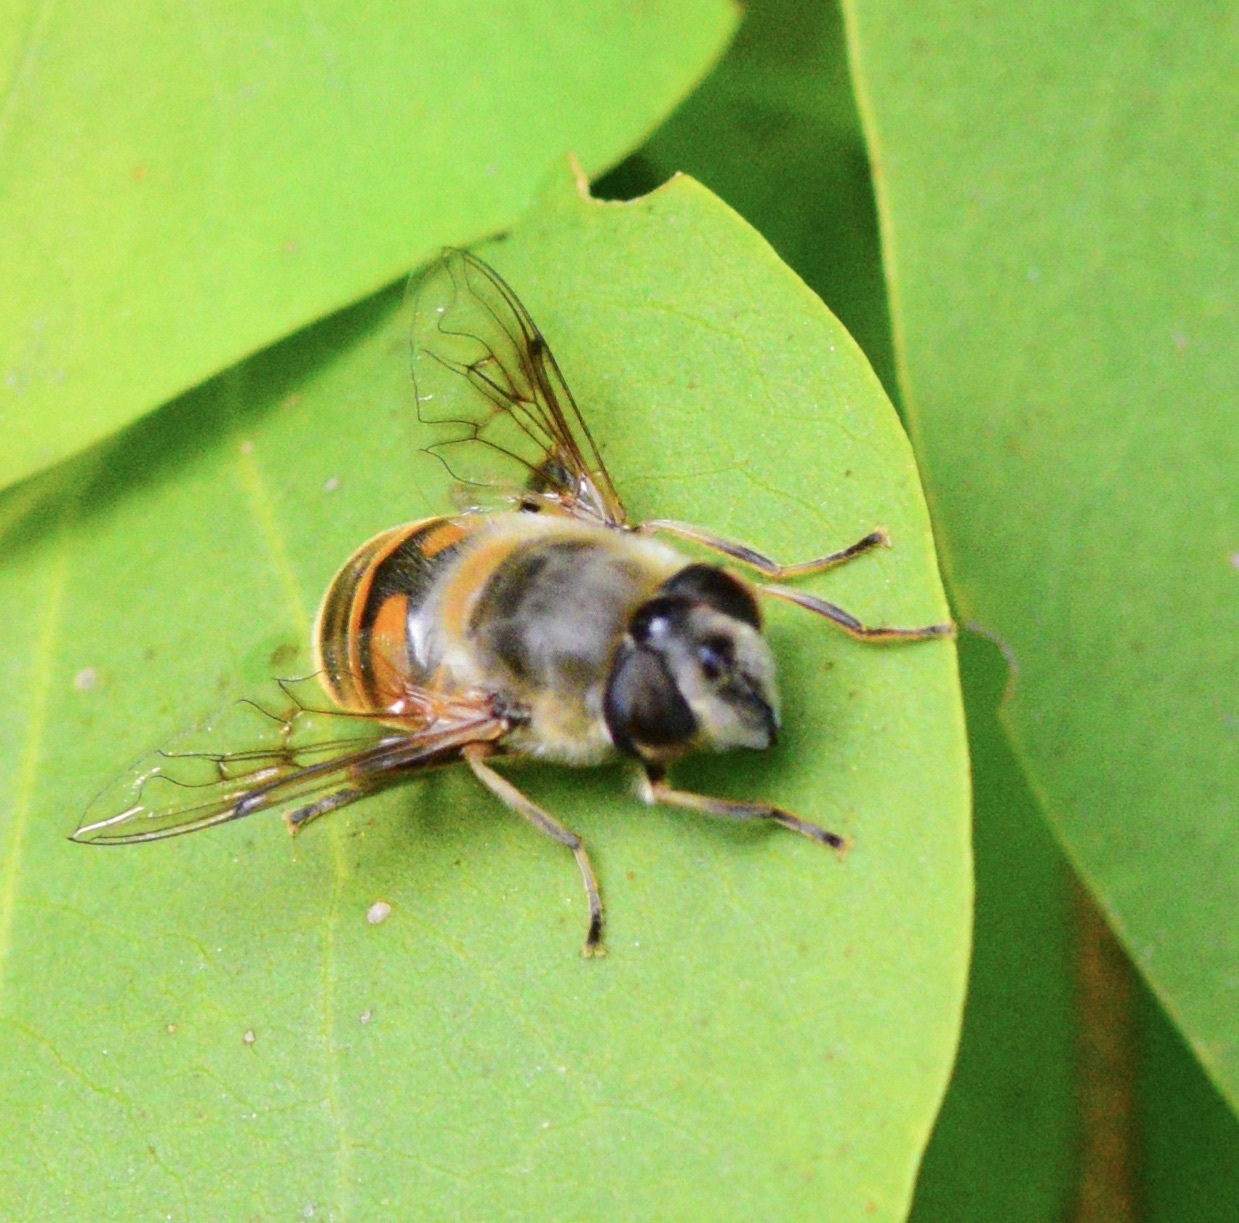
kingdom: Animalia
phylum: Arthropoda
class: Insecta
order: Diptera
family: Syrphidae
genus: Eristalis
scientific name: Eristalis tenax
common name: Drone fly
